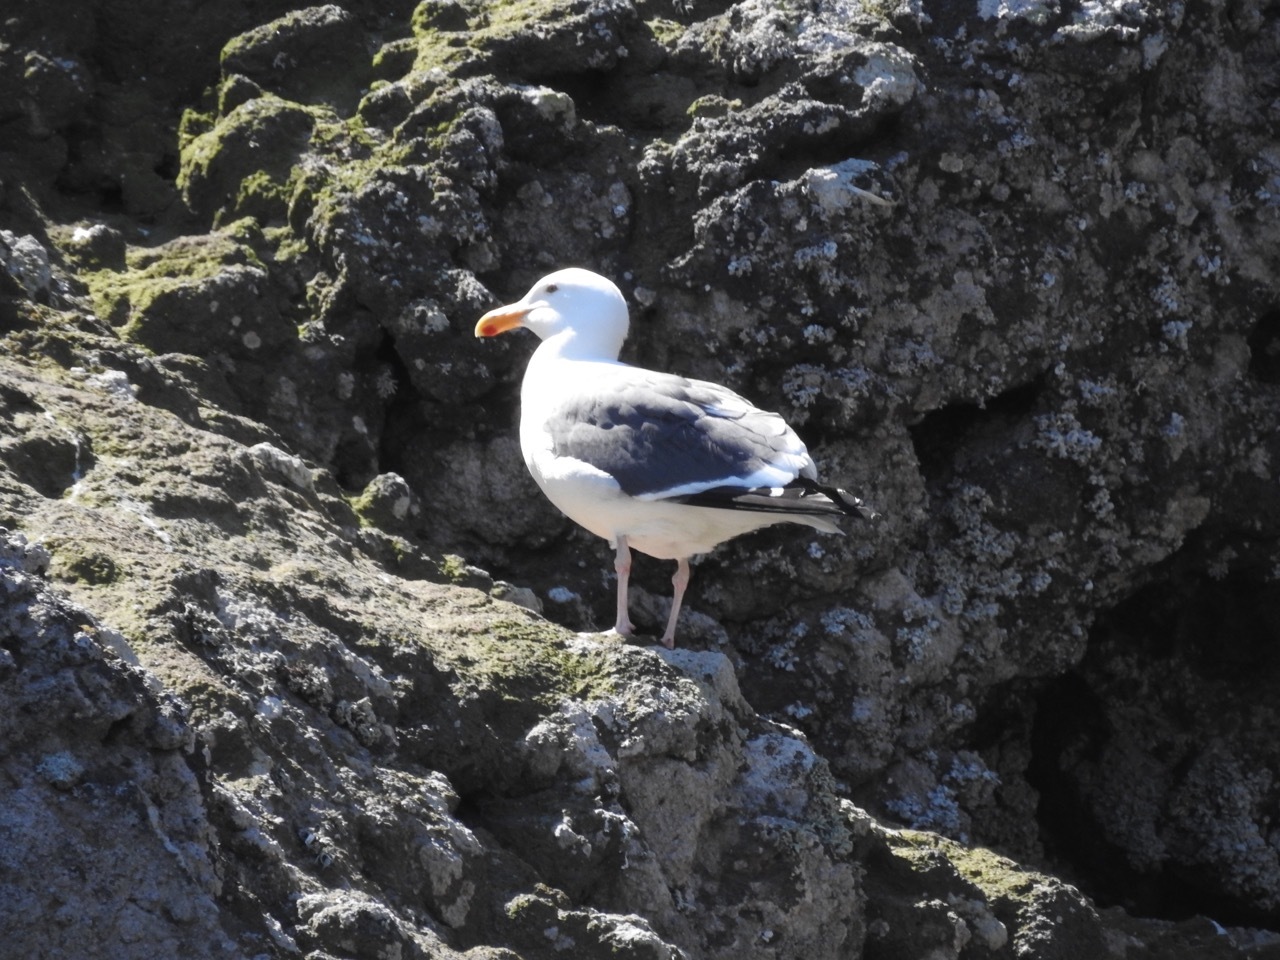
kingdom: Animalia
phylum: Chordata
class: Aves
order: Charadriiformes
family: Laridae
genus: Larus
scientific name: Larus occidentalis
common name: Western gull
